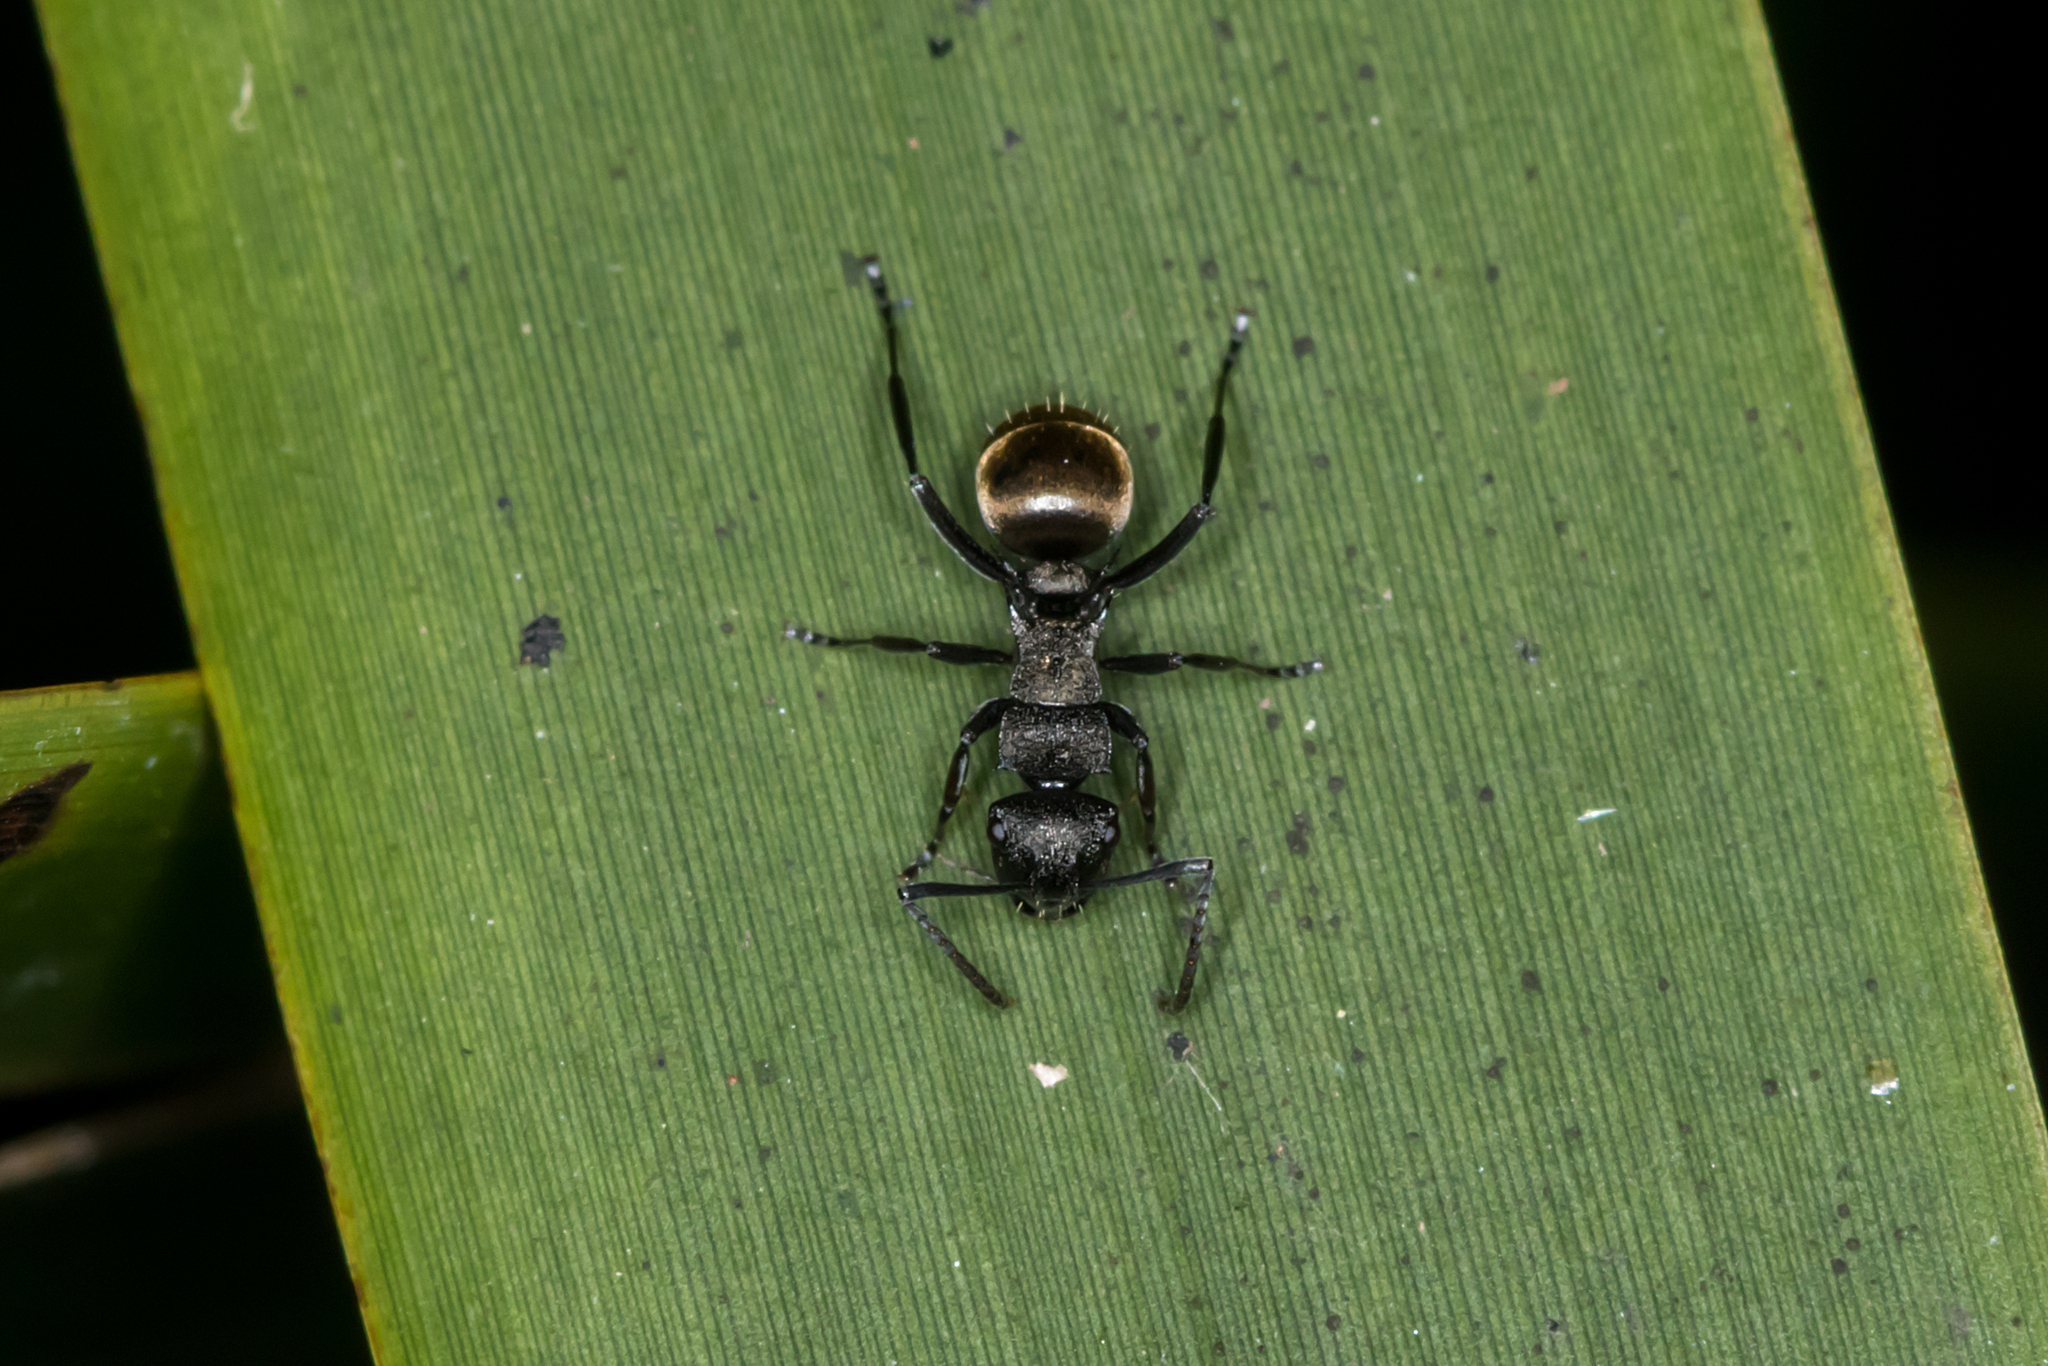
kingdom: Animalia
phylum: Arthropoda
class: Insecta
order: Hymenoptera
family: Formicidae
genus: Polyrhachis
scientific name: Polyrhachis mjobergi
